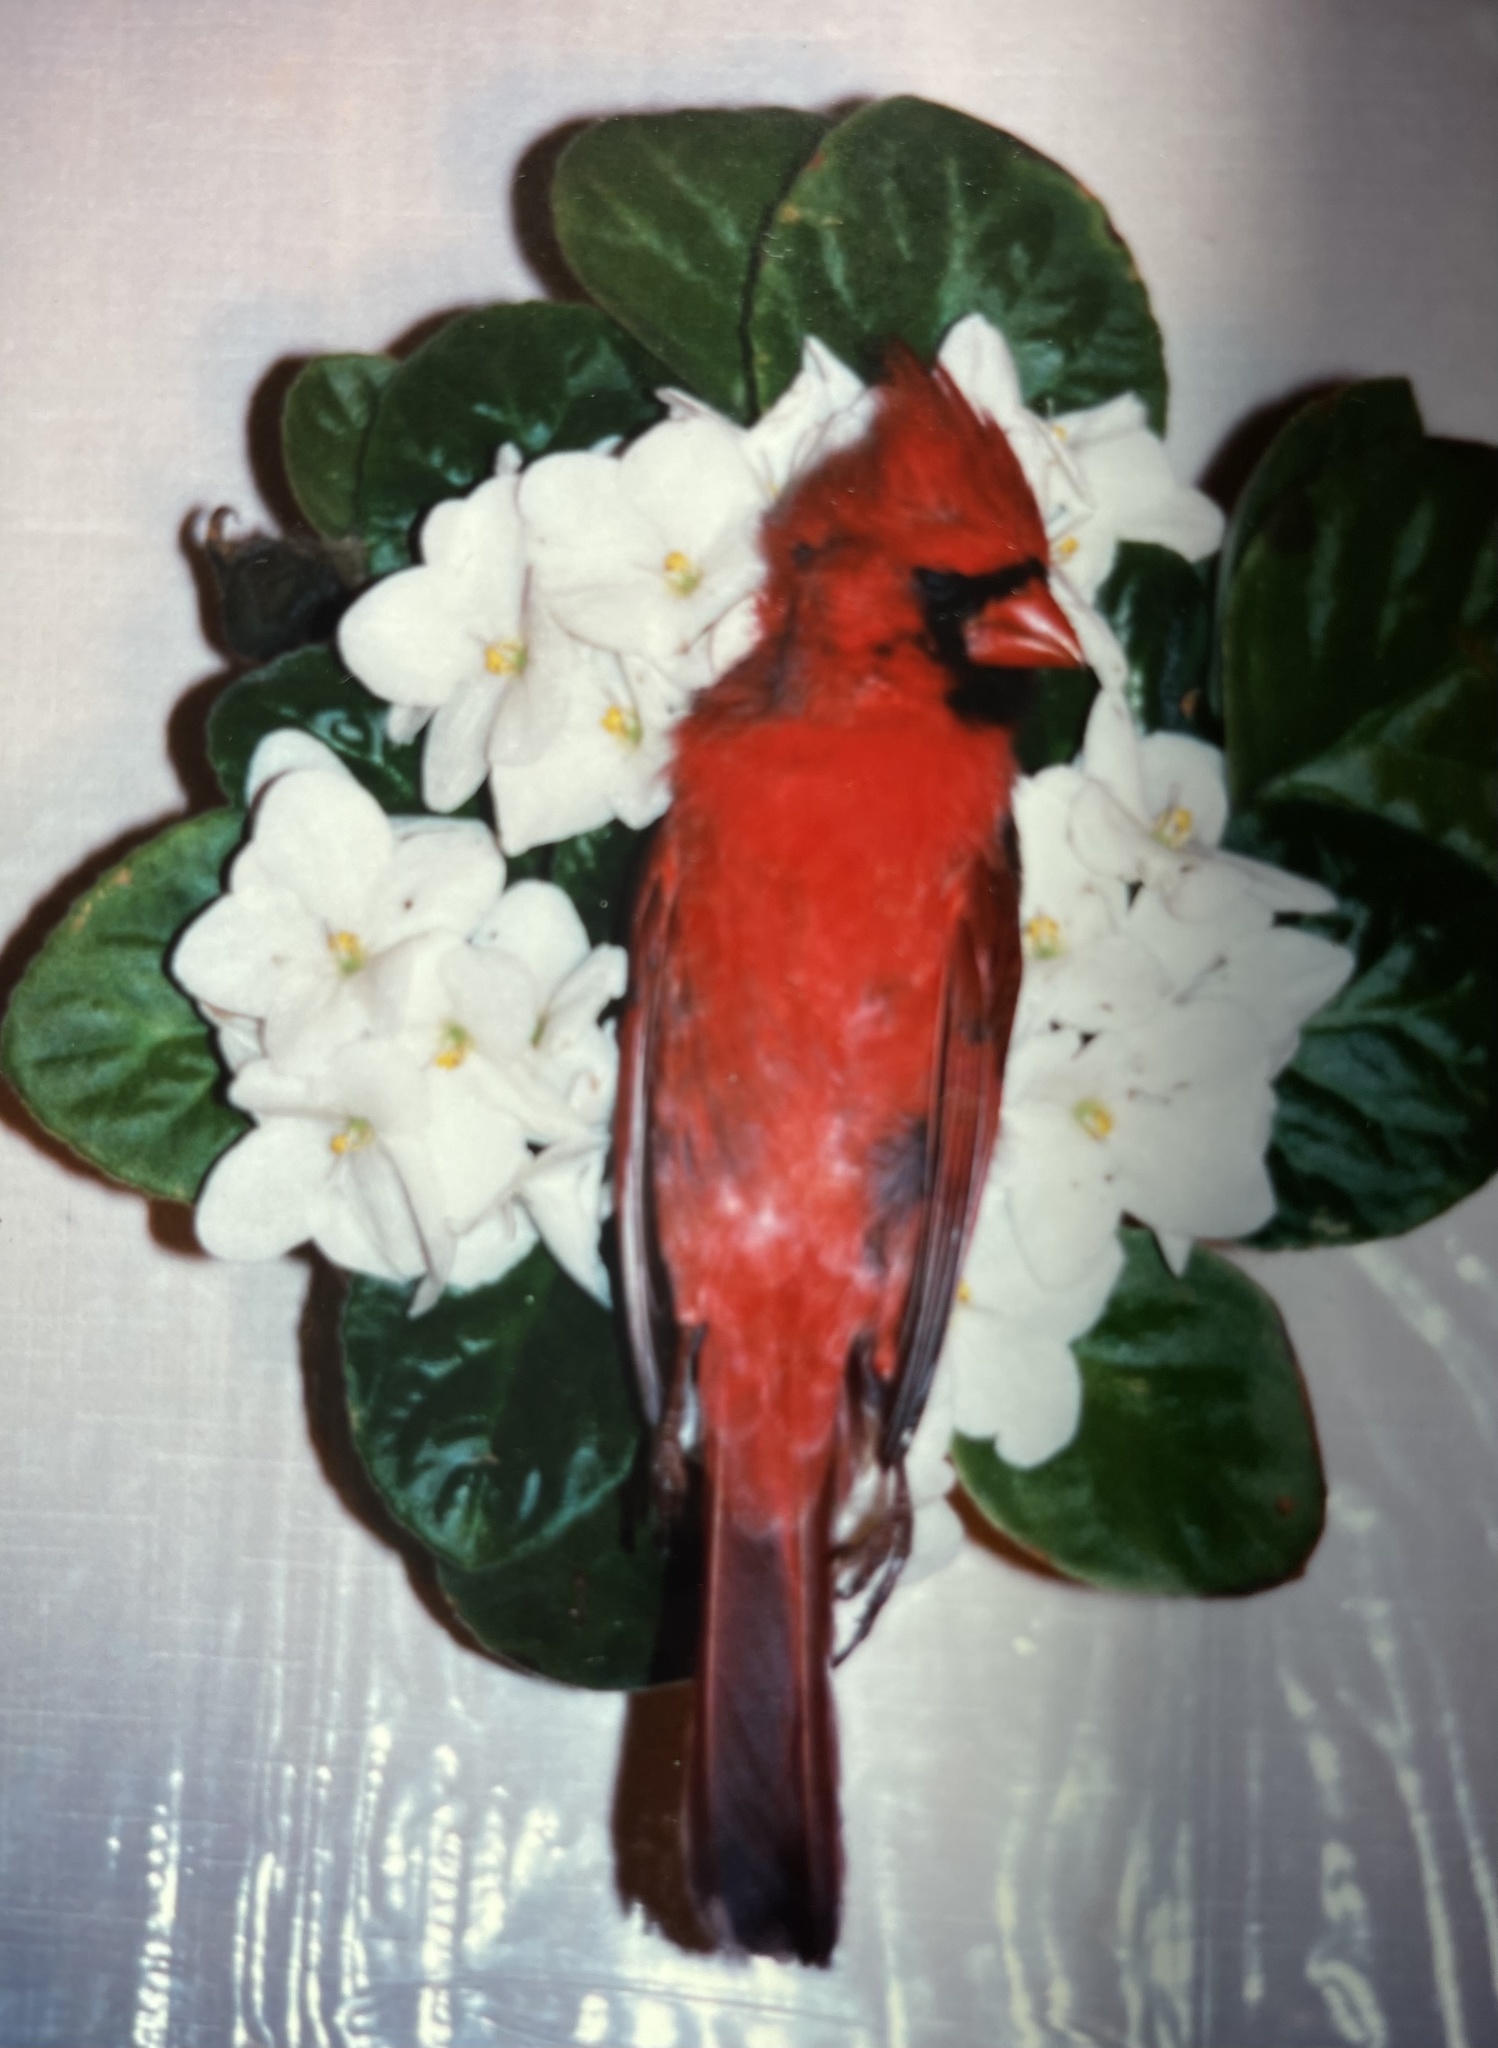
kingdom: Animalia
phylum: Chordata
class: Aves
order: Passeriformes
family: Cardinalidae
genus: Cardinalis
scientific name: Cardinalis cardinalis
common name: Northern cardinal
